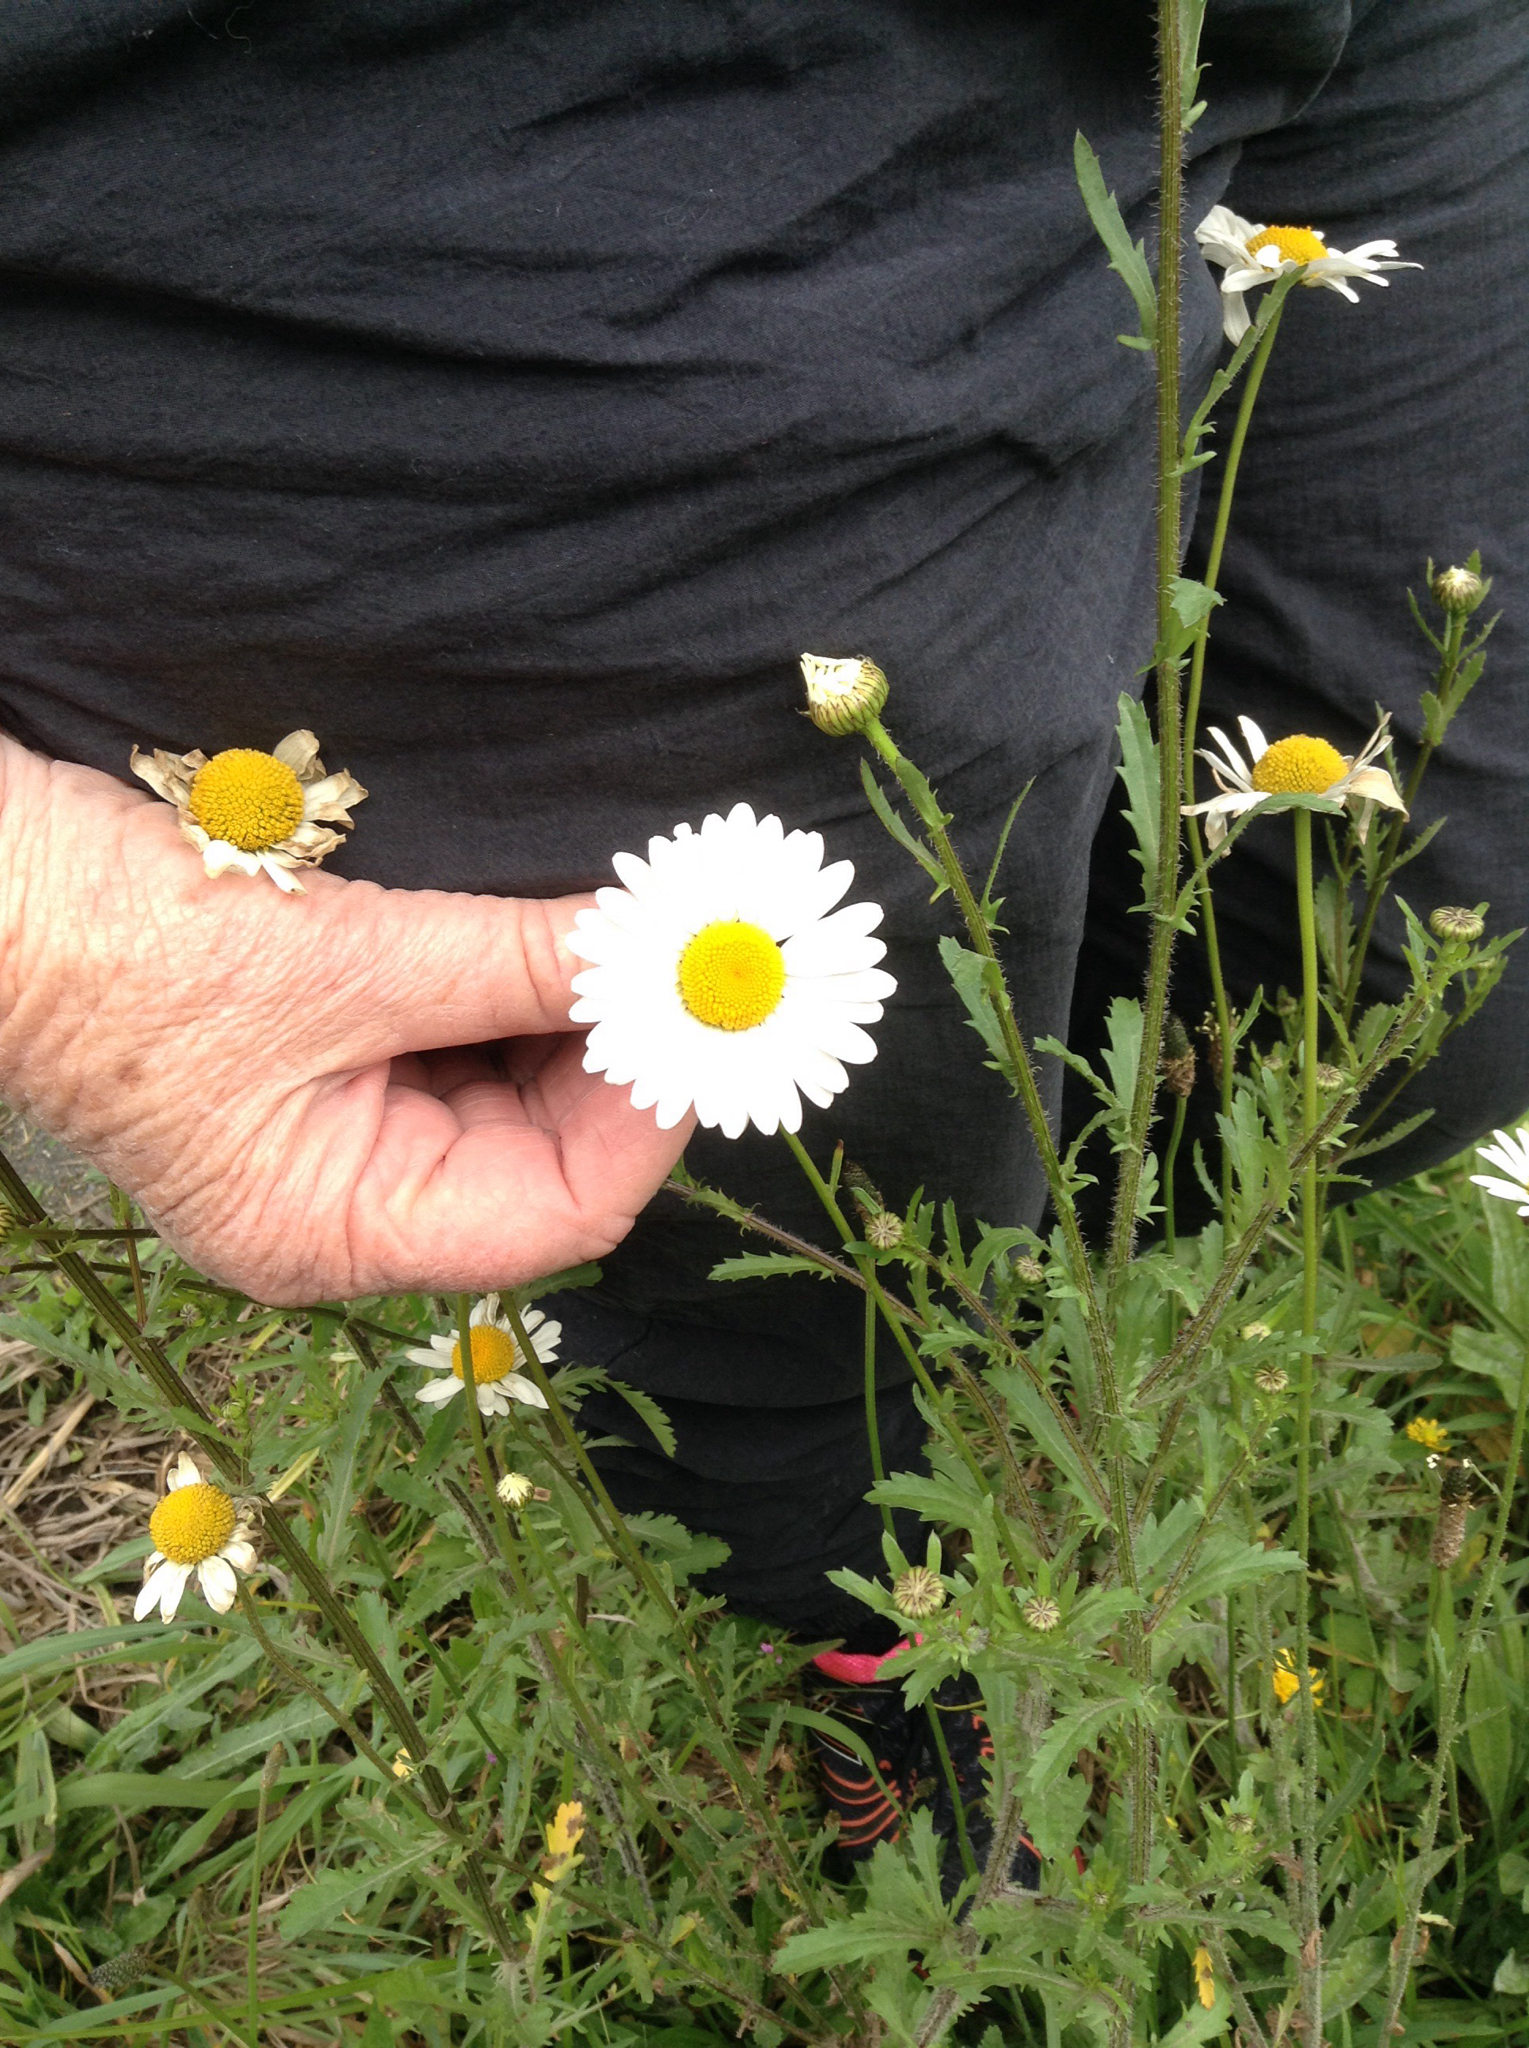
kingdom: Plantae
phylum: Tracheophyta
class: Magnoliopsida
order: Asterales
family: Asteraceae
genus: Leucanthemum
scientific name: Leucanthemum vulgare
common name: Oxeye daisy
